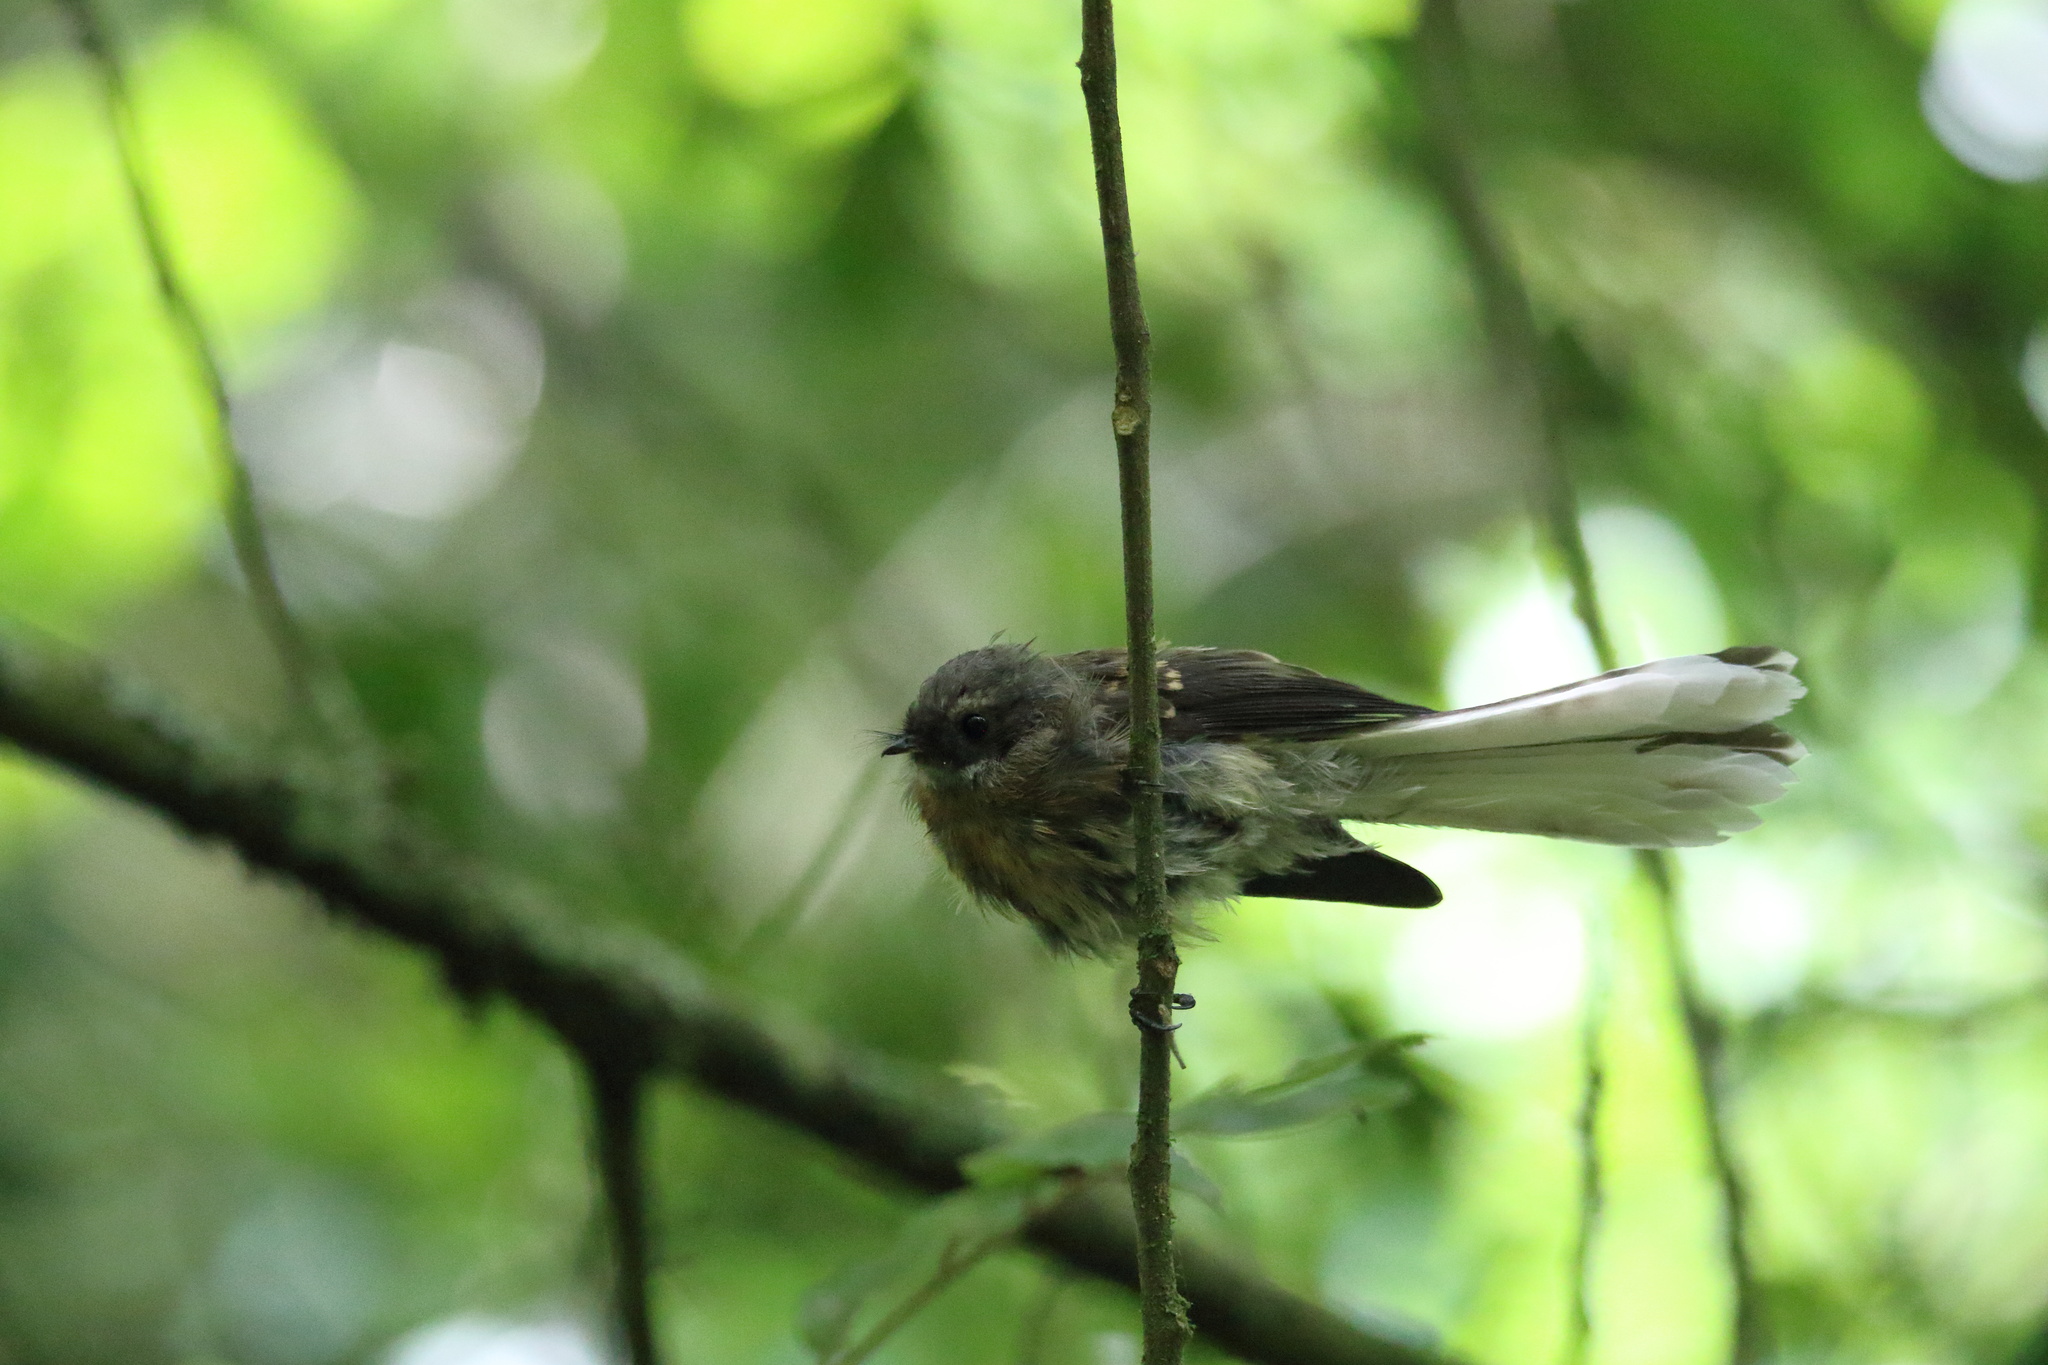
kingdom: Animalia
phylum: Chordata
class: Aves
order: Passeriformes
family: Rhipiduridae
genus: Rhipidura
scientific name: Rhipidura fuliginosa
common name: New zealand fantail
